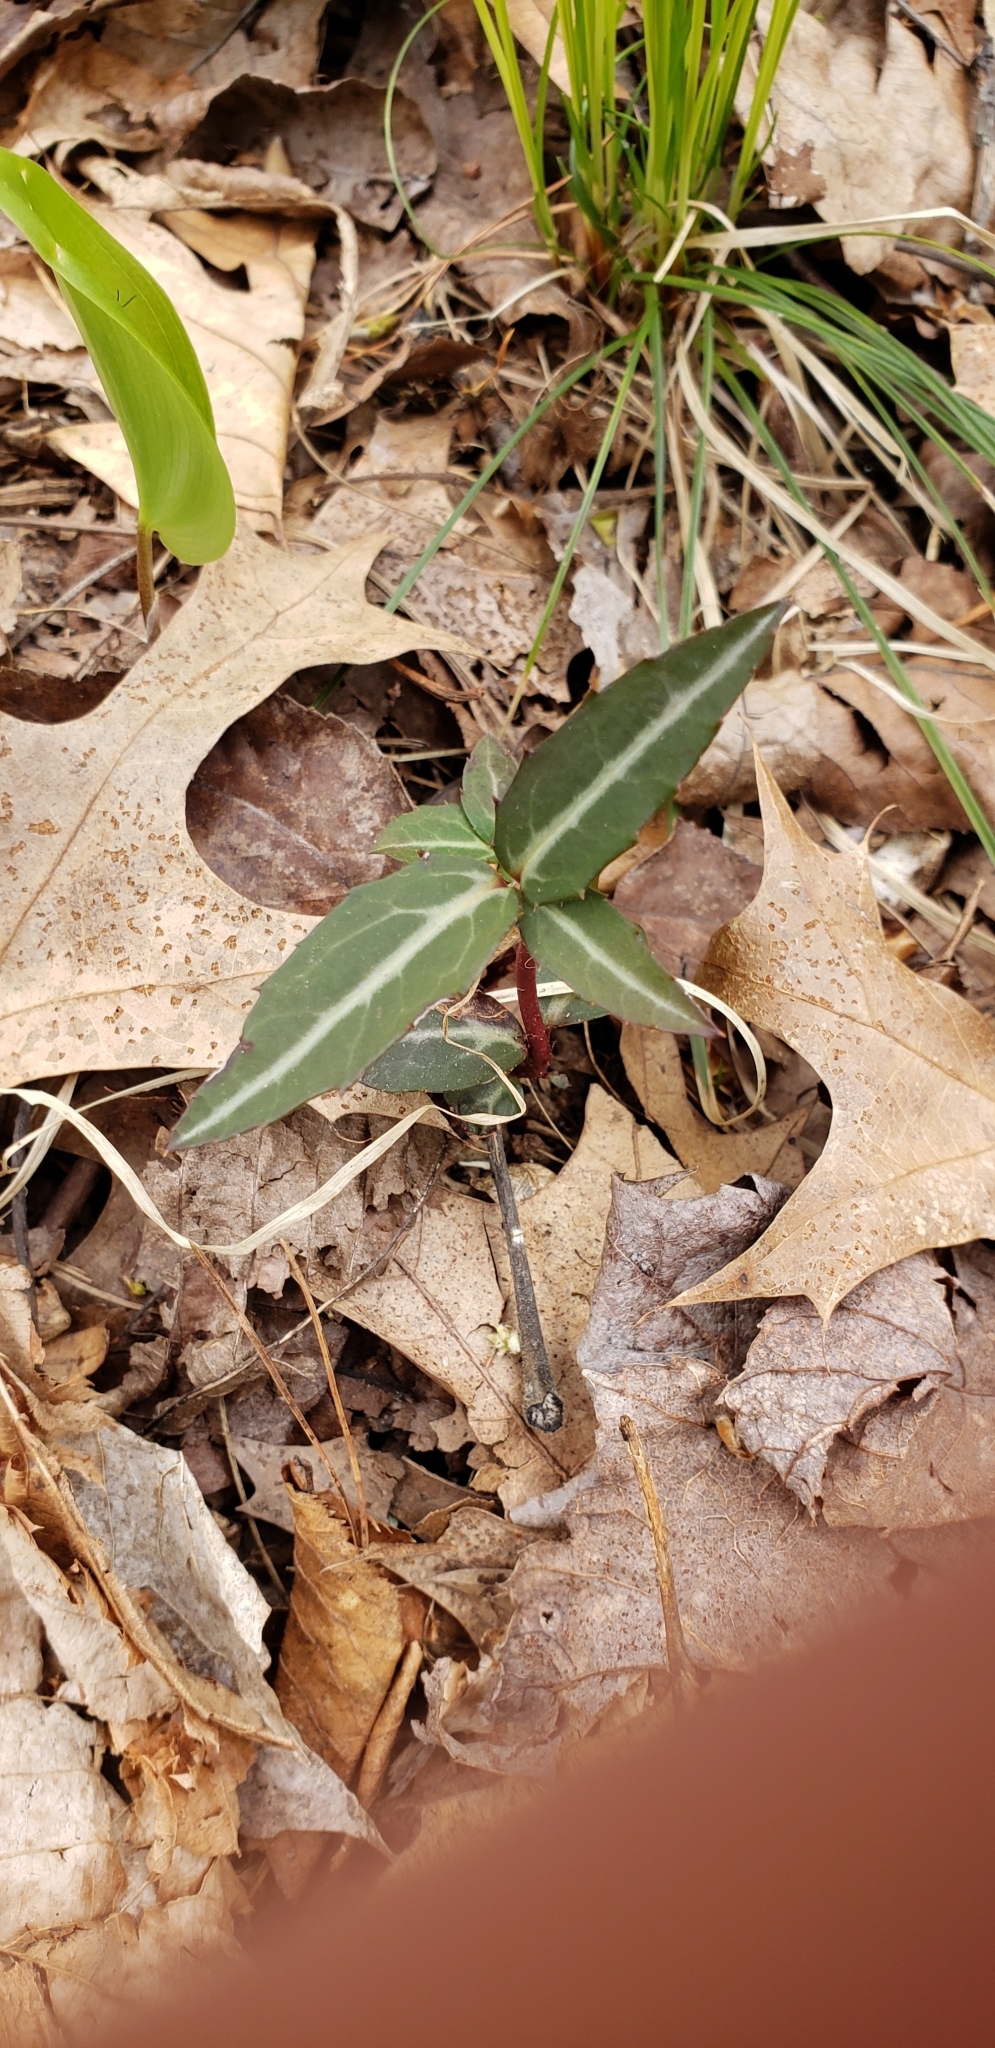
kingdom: Plantae
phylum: Tracheophyta
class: Magnoliopsida
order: Ericales
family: Ericaceae
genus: Chimaphila
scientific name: Chimaphila maculata
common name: Spotted pipsissewa
